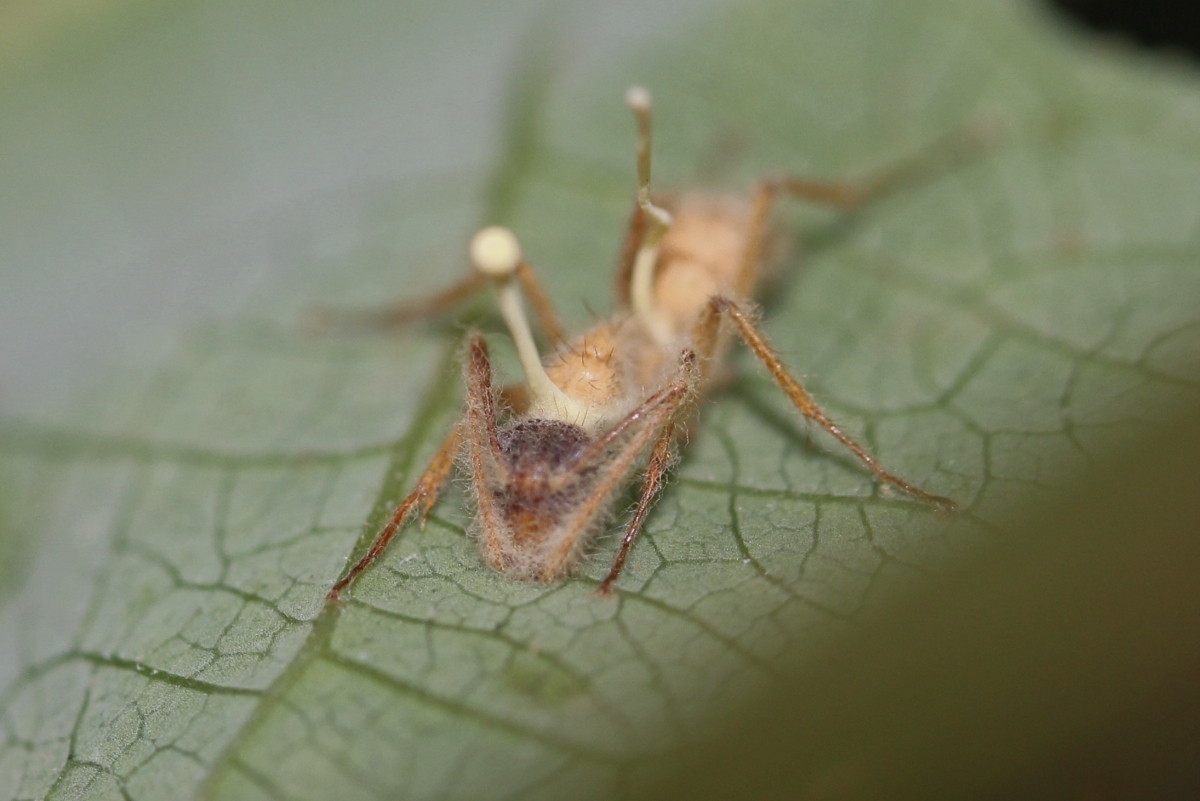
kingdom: Fungi
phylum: Ascomycota
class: Sordariomycetes
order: Hypocreales
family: Ophiocordycipitaceae
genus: Ophiocordyceps
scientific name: Ophiocordyceps lloydii
